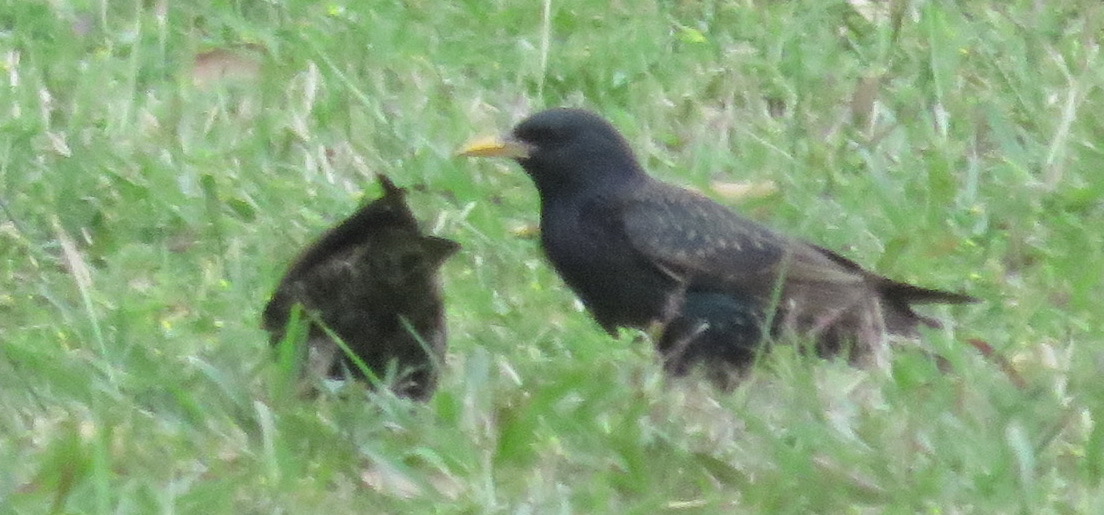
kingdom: Animalia
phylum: Chordata
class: Aves
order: Passeriformes
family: Sturnidae
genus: Sturnus
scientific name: Sturnus vulgaris
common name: Common starling
